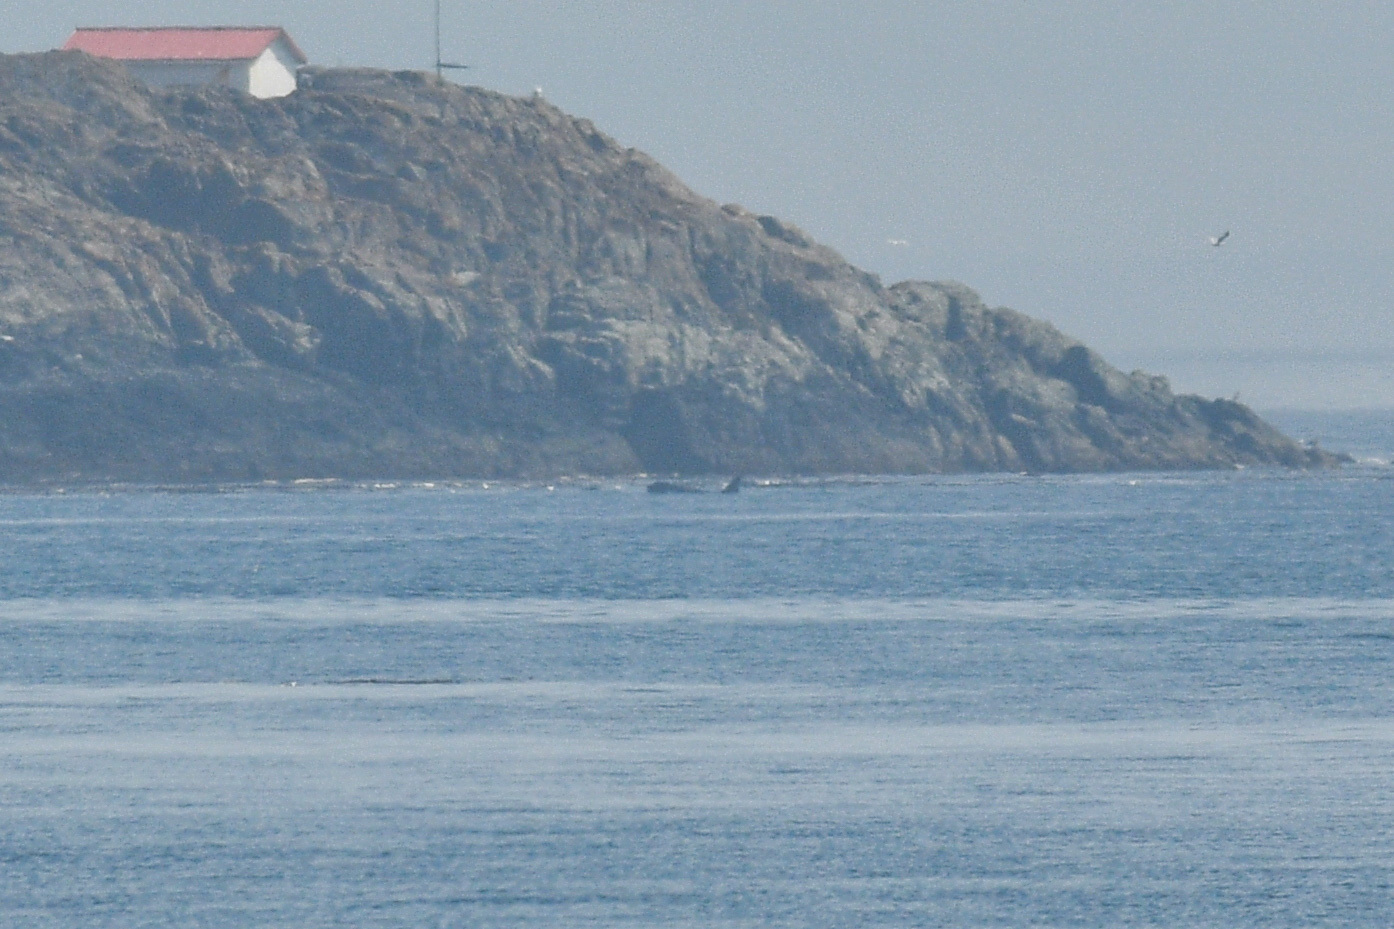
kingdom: Animalia
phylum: Chordata
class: Mammalia
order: Cetacea
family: Delphinidae
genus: Orcinus
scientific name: Orcinus orca
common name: Killer whale
